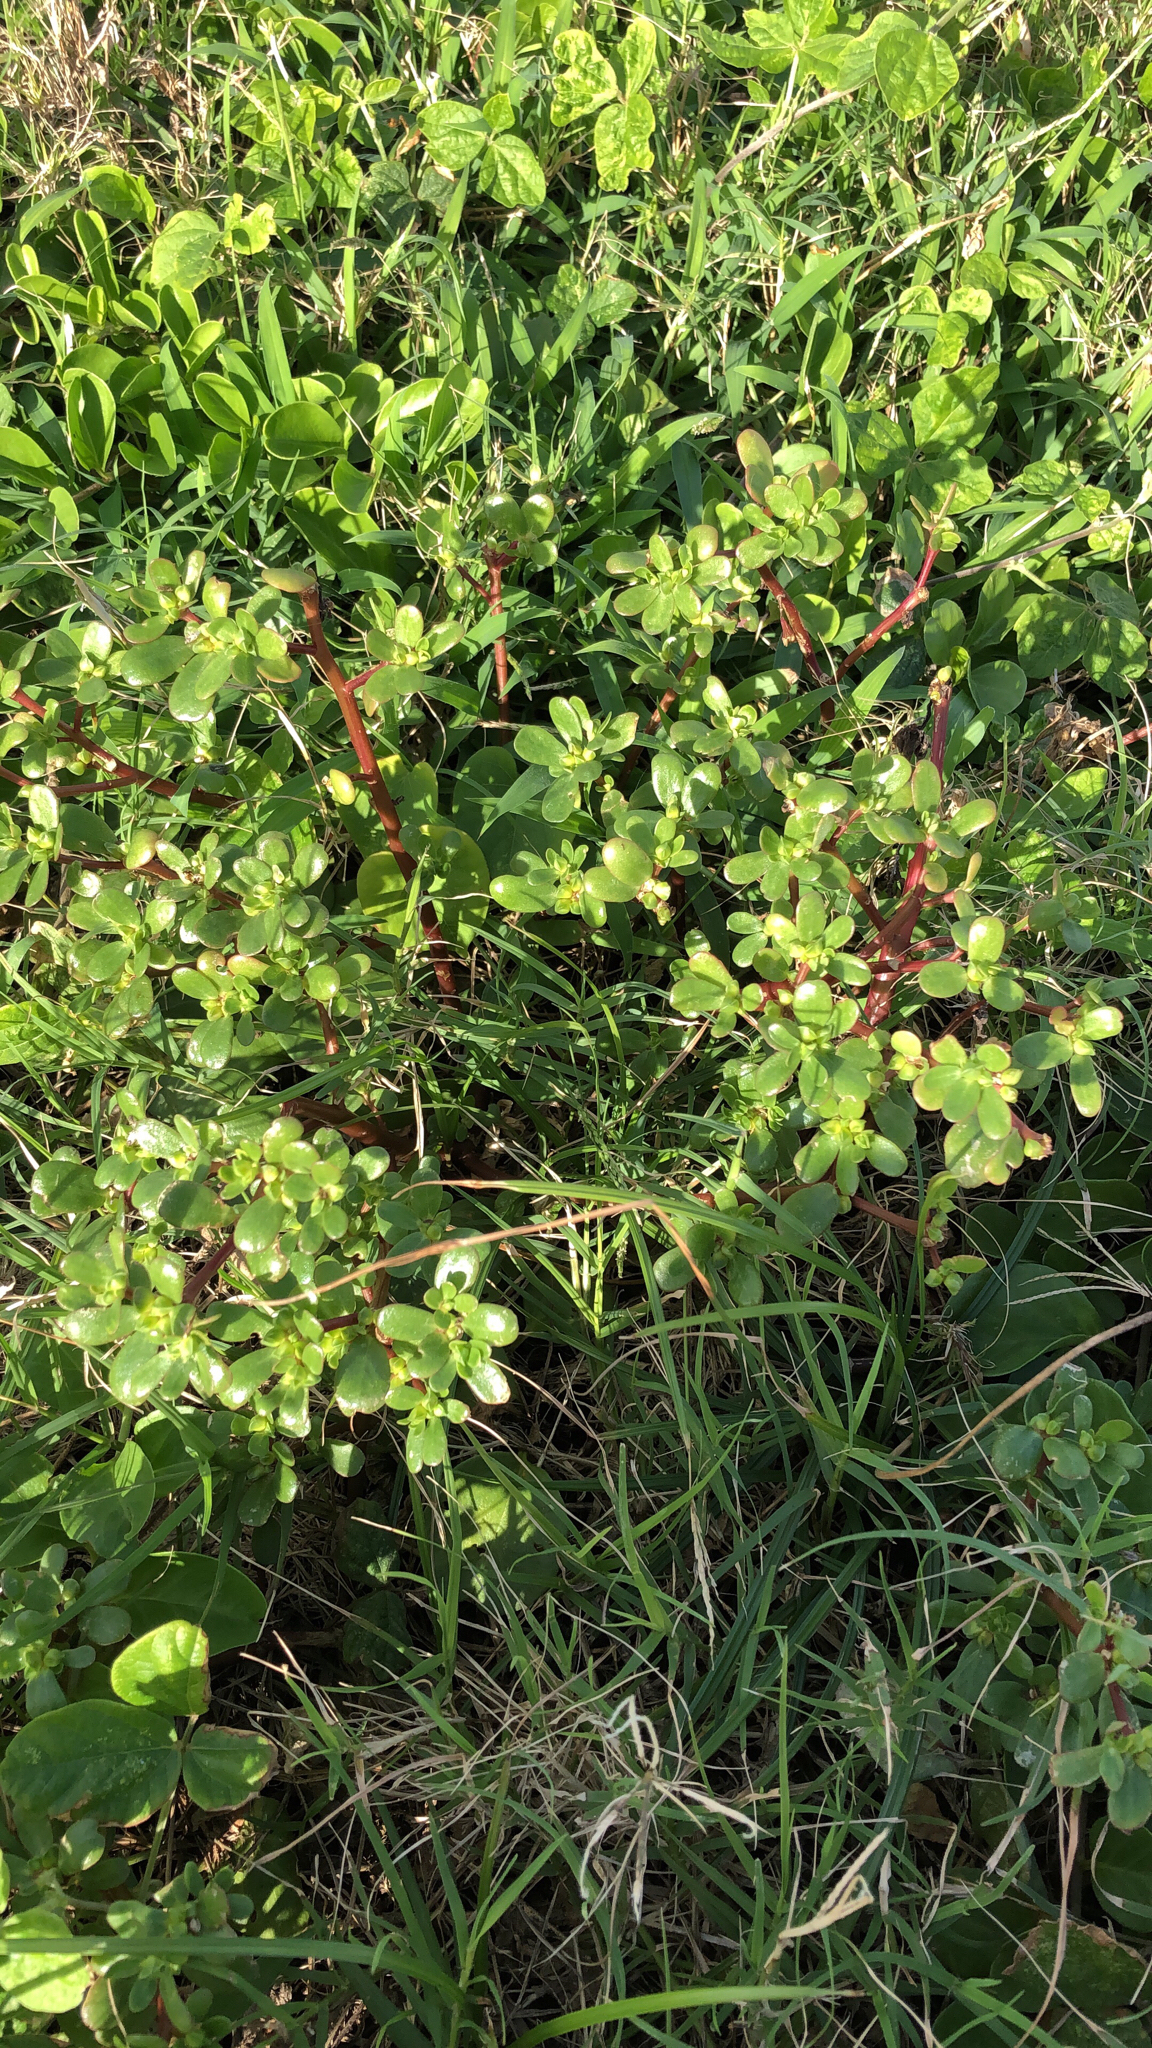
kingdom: Plantae
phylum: Tracheophyta
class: Magnoliopsida
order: Caryophyllales
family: Portulacaceae
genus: Portulaca
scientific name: Portulaca oleracea
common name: Common purslane
